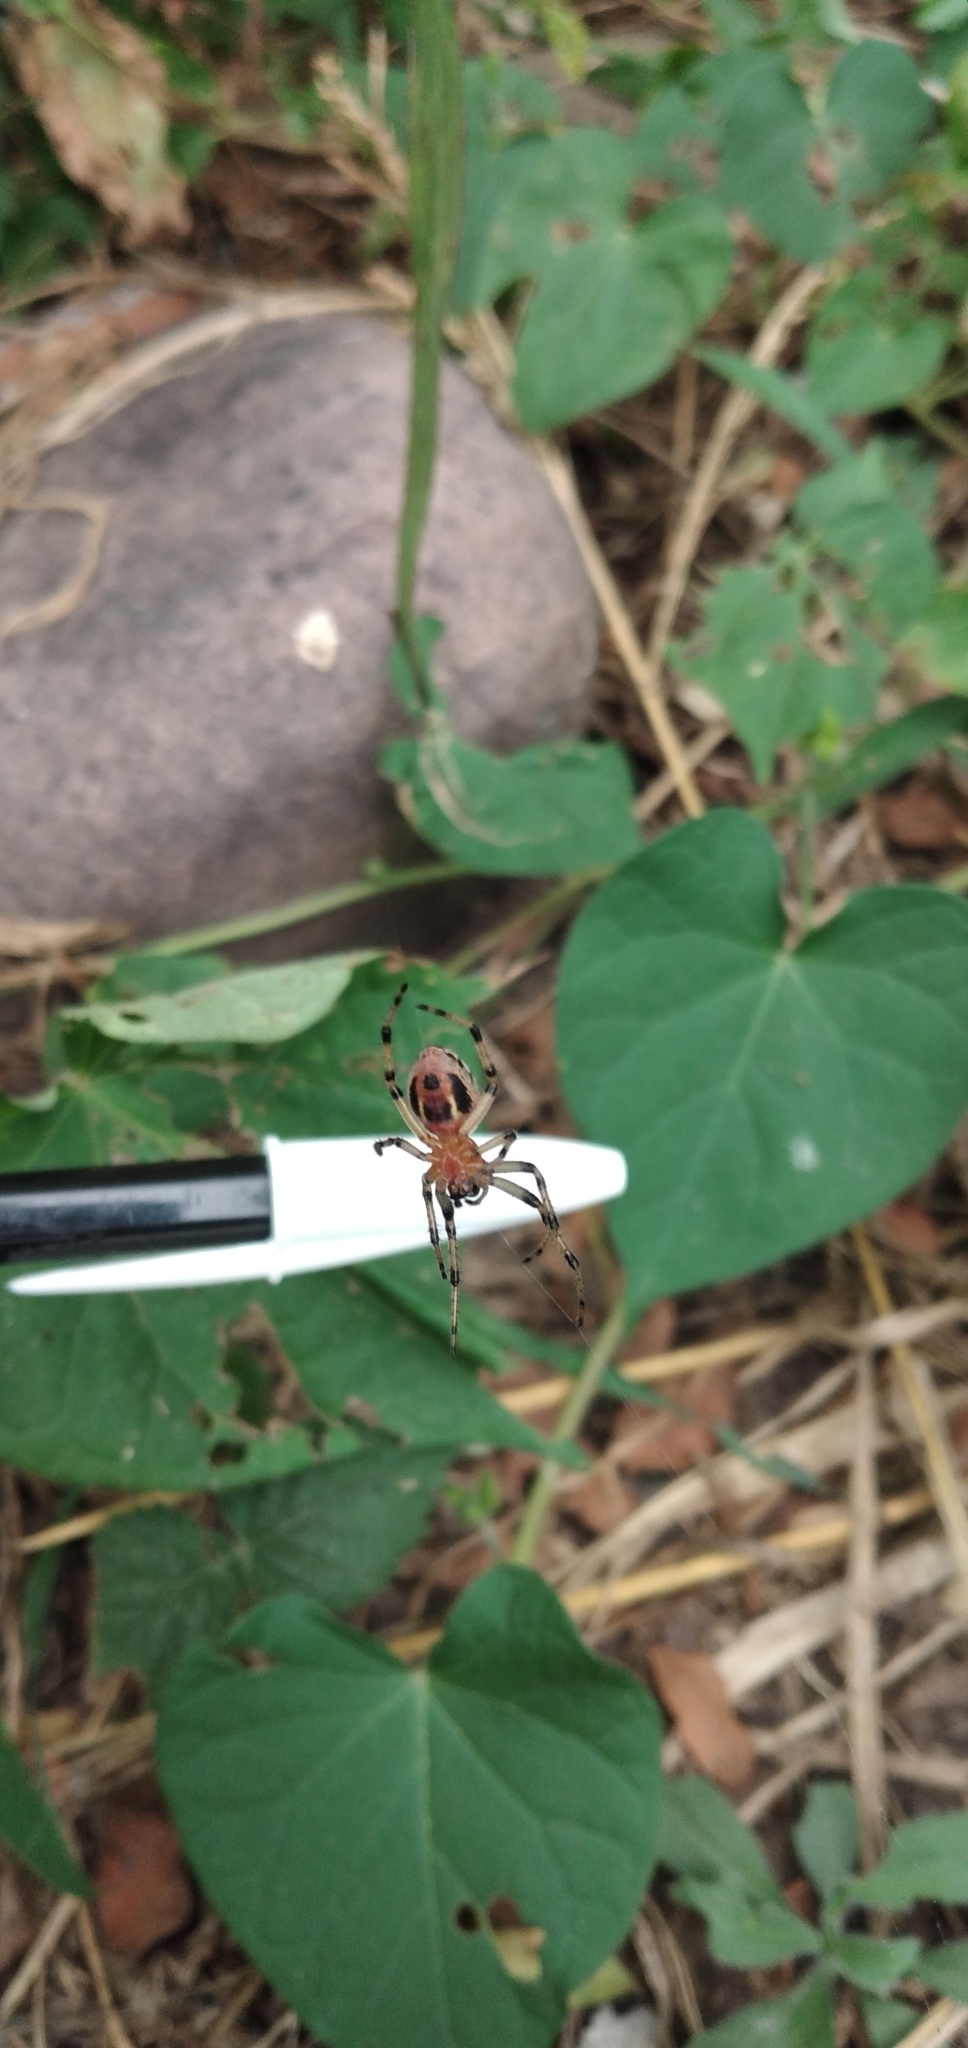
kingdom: Animalia
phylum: Arthropoda
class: Arachnida
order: Araneae
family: Araneidae
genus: Alpaida
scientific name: Alpaida veniliae
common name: Orb weavers
